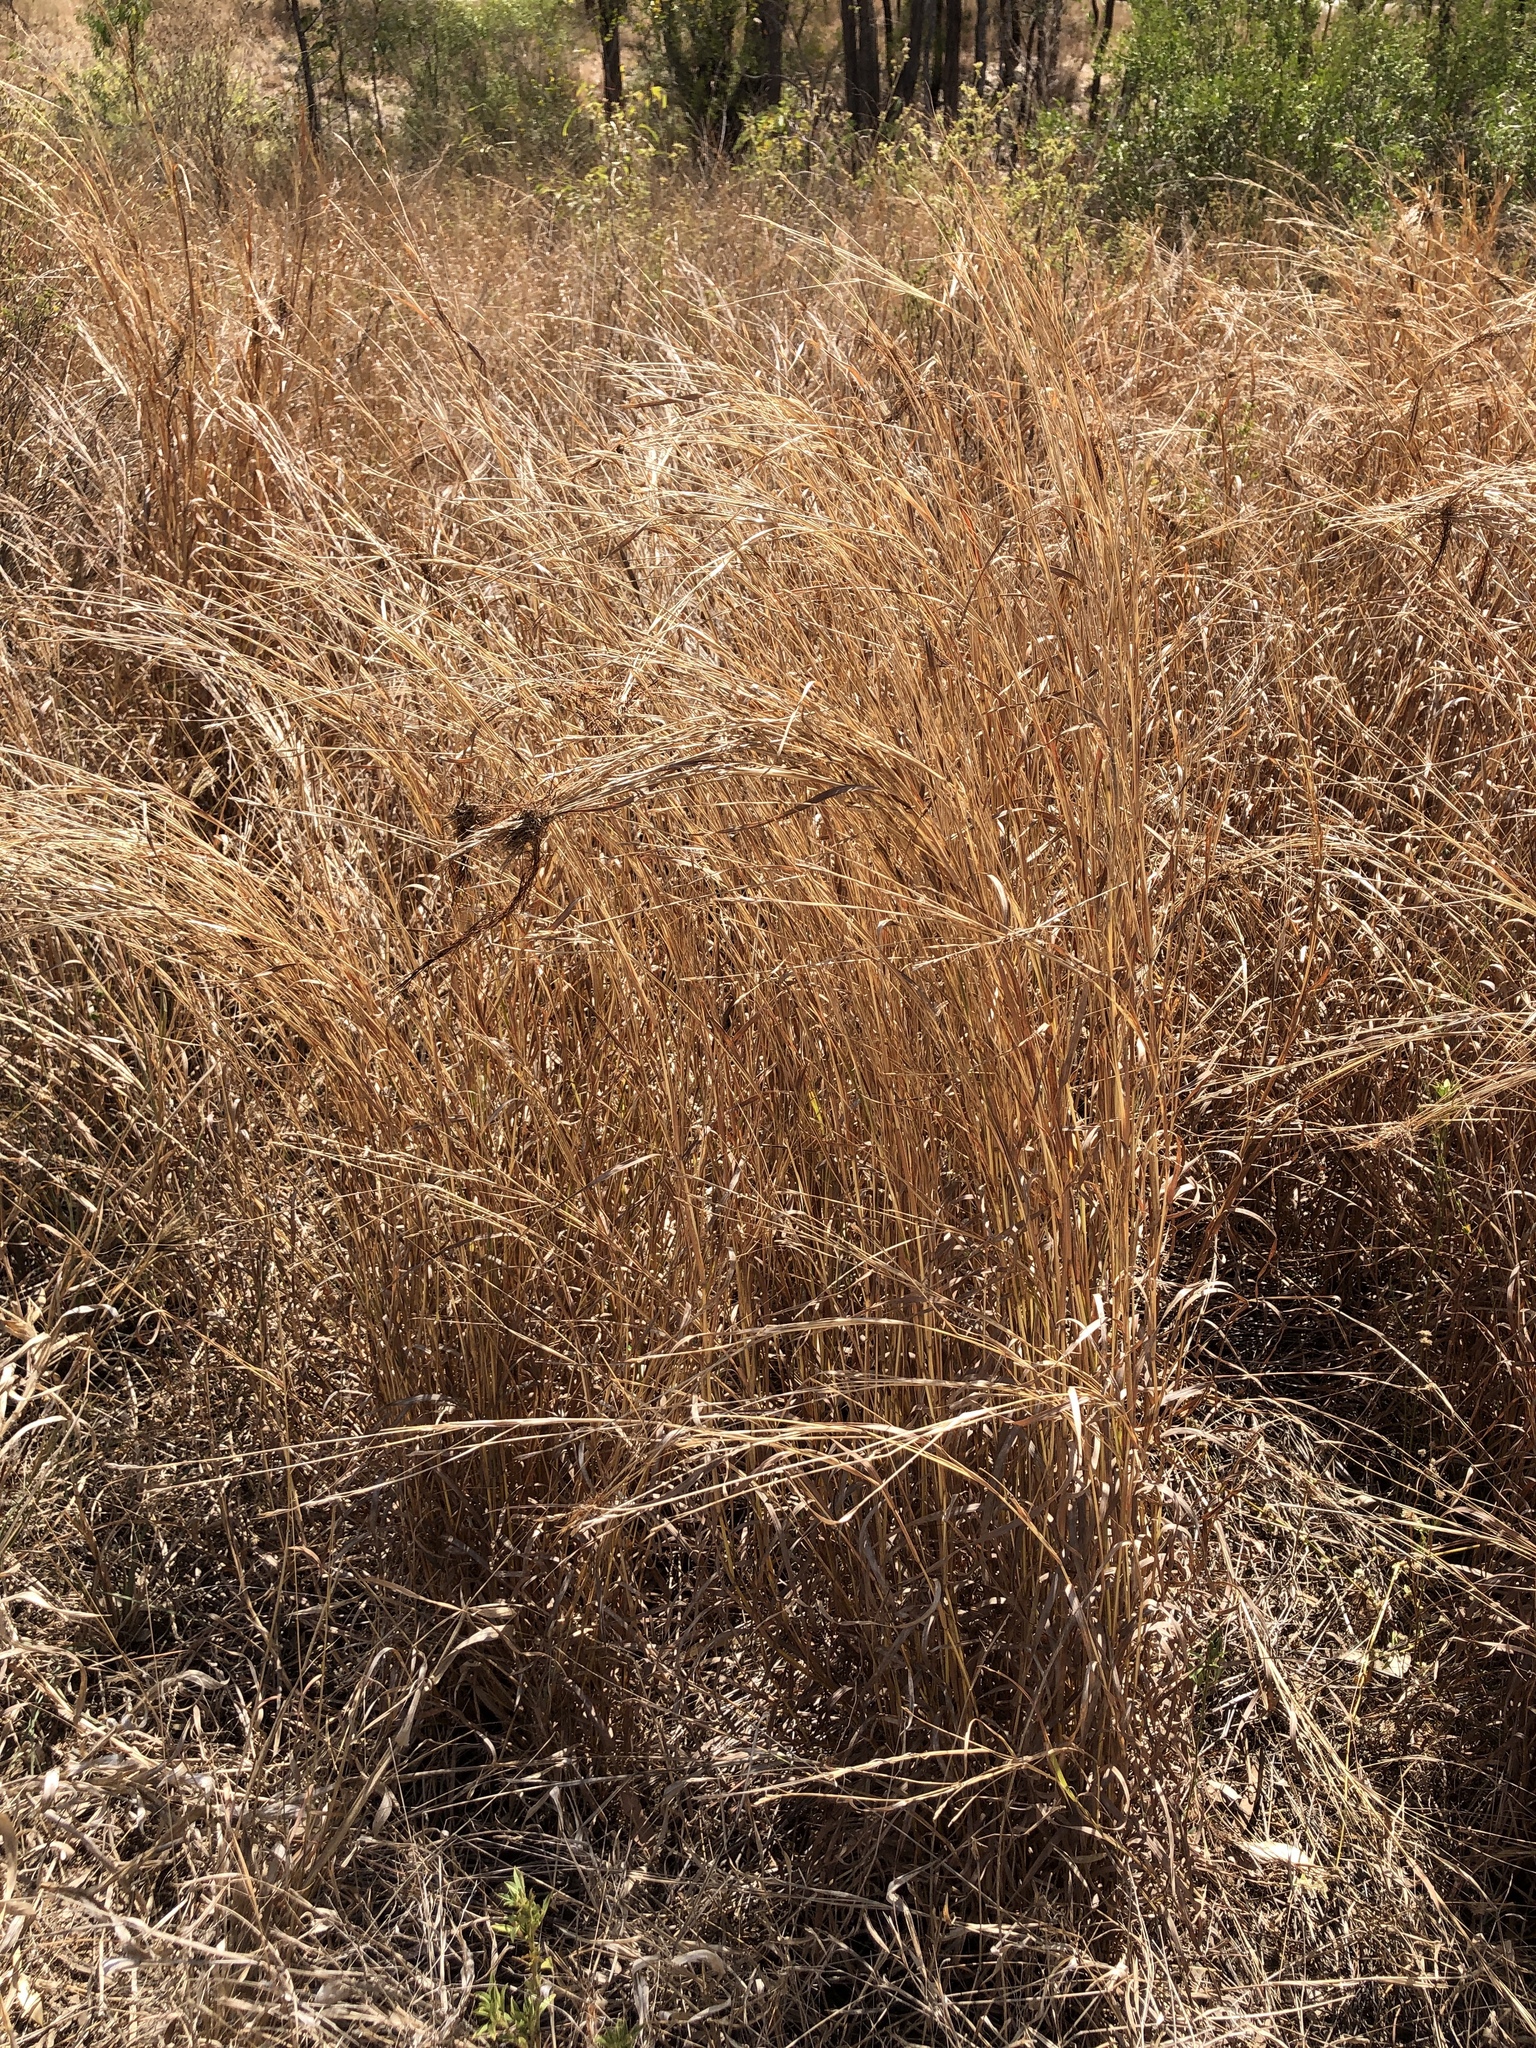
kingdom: Plantae
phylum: Tracheophyta
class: Liliopsida
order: Poales
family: Poaceae
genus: Heteropogon
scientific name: Heteropogon contortus
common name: Tanglehead
